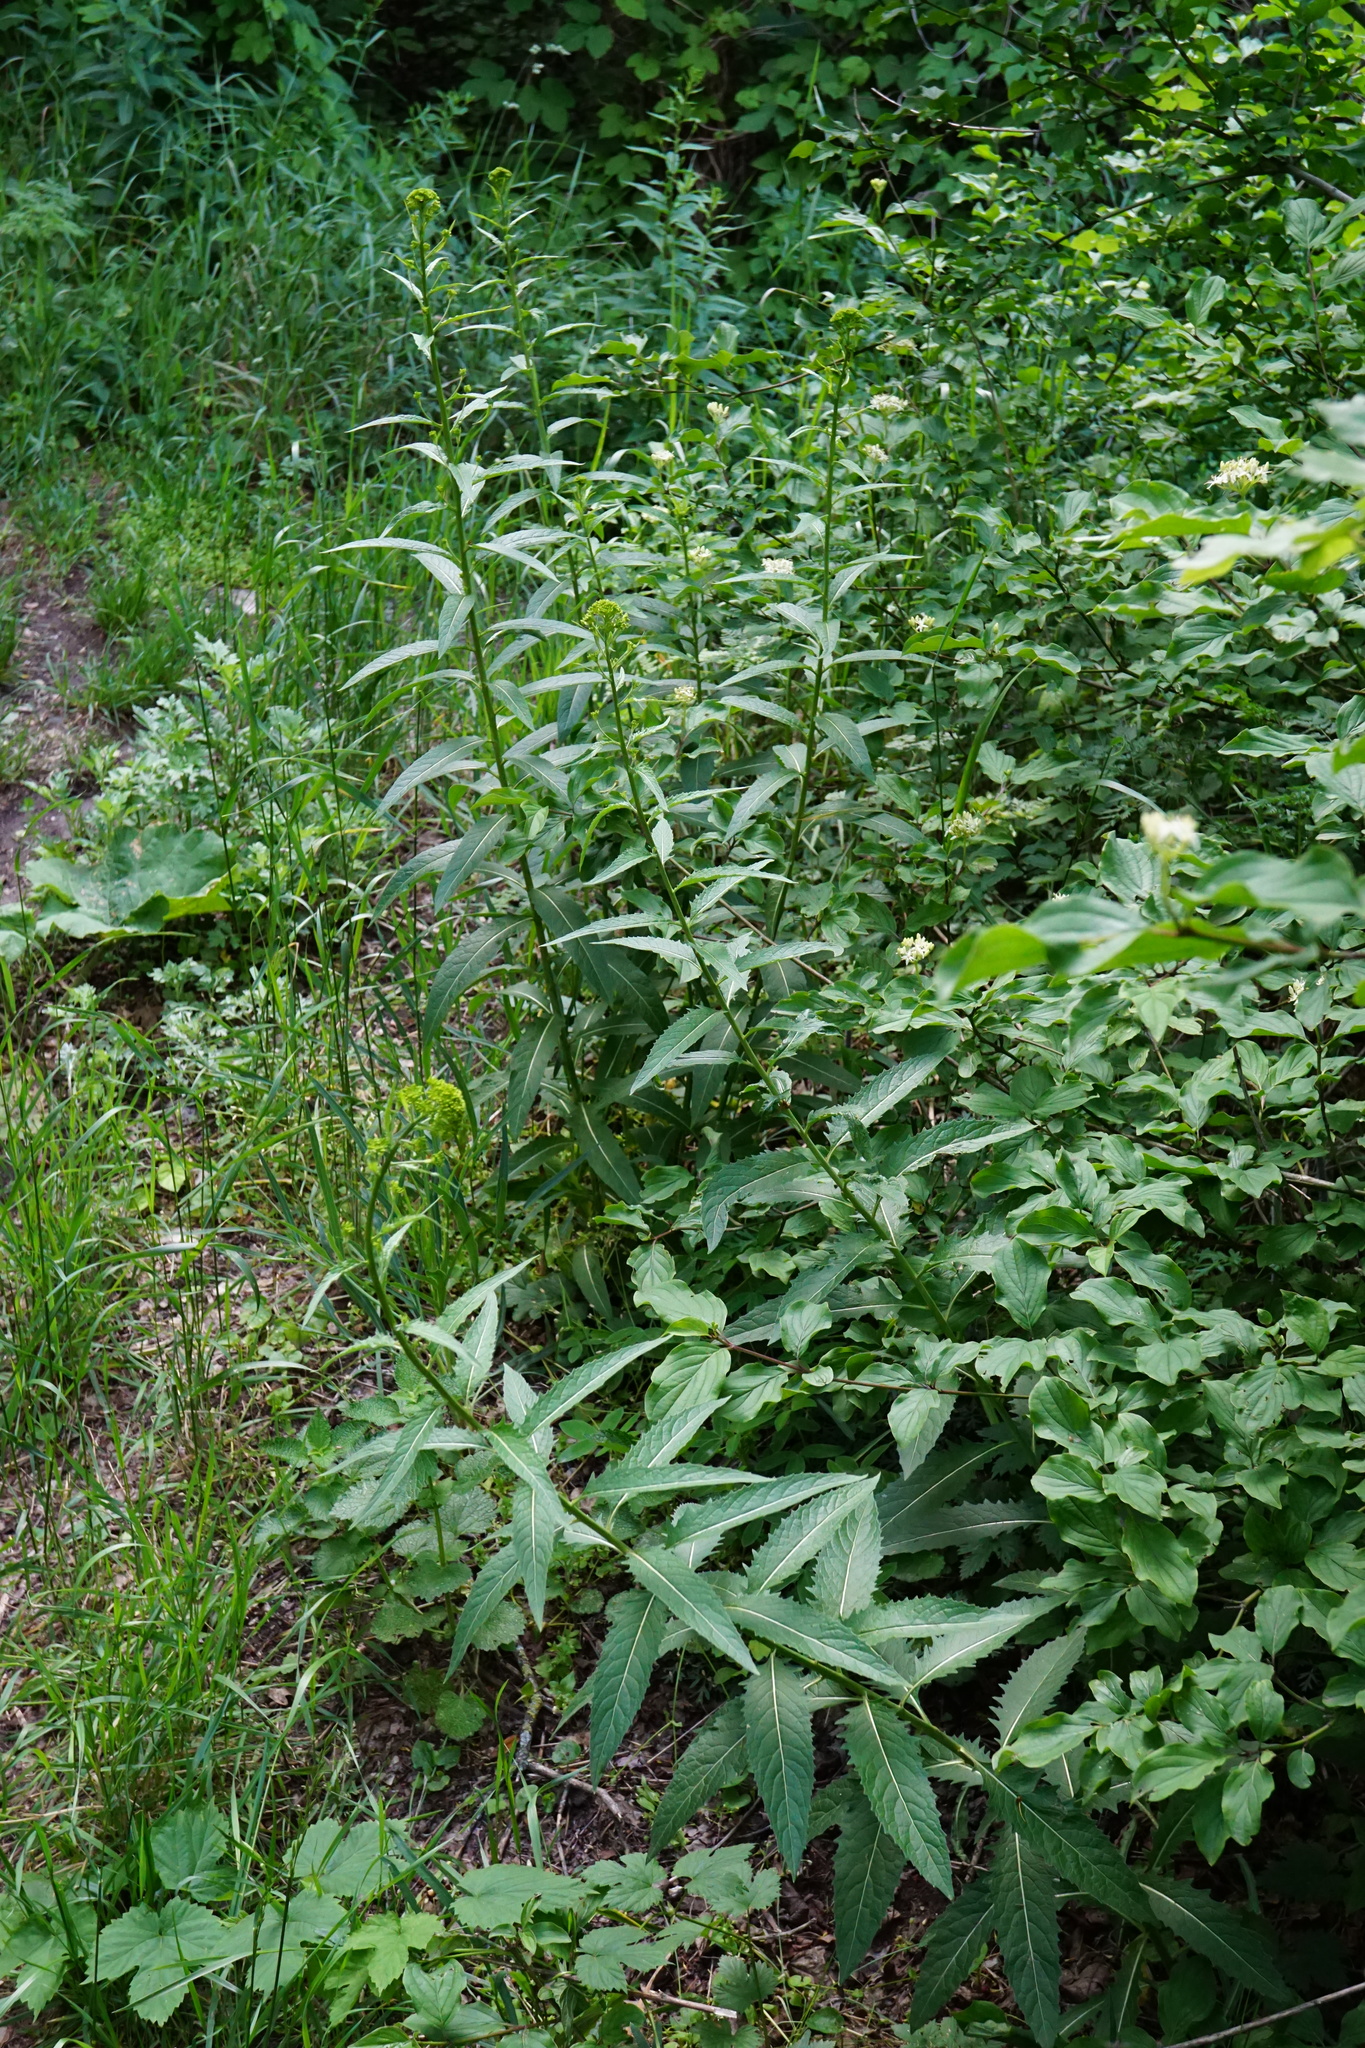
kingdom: Plantae
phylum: Tracheophyta
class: Magnoliopsida
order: Brassicales
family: Brassicaceae
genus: Sisymbrium
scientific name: Sisymbrium strictissimum
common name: Perennial rocket
